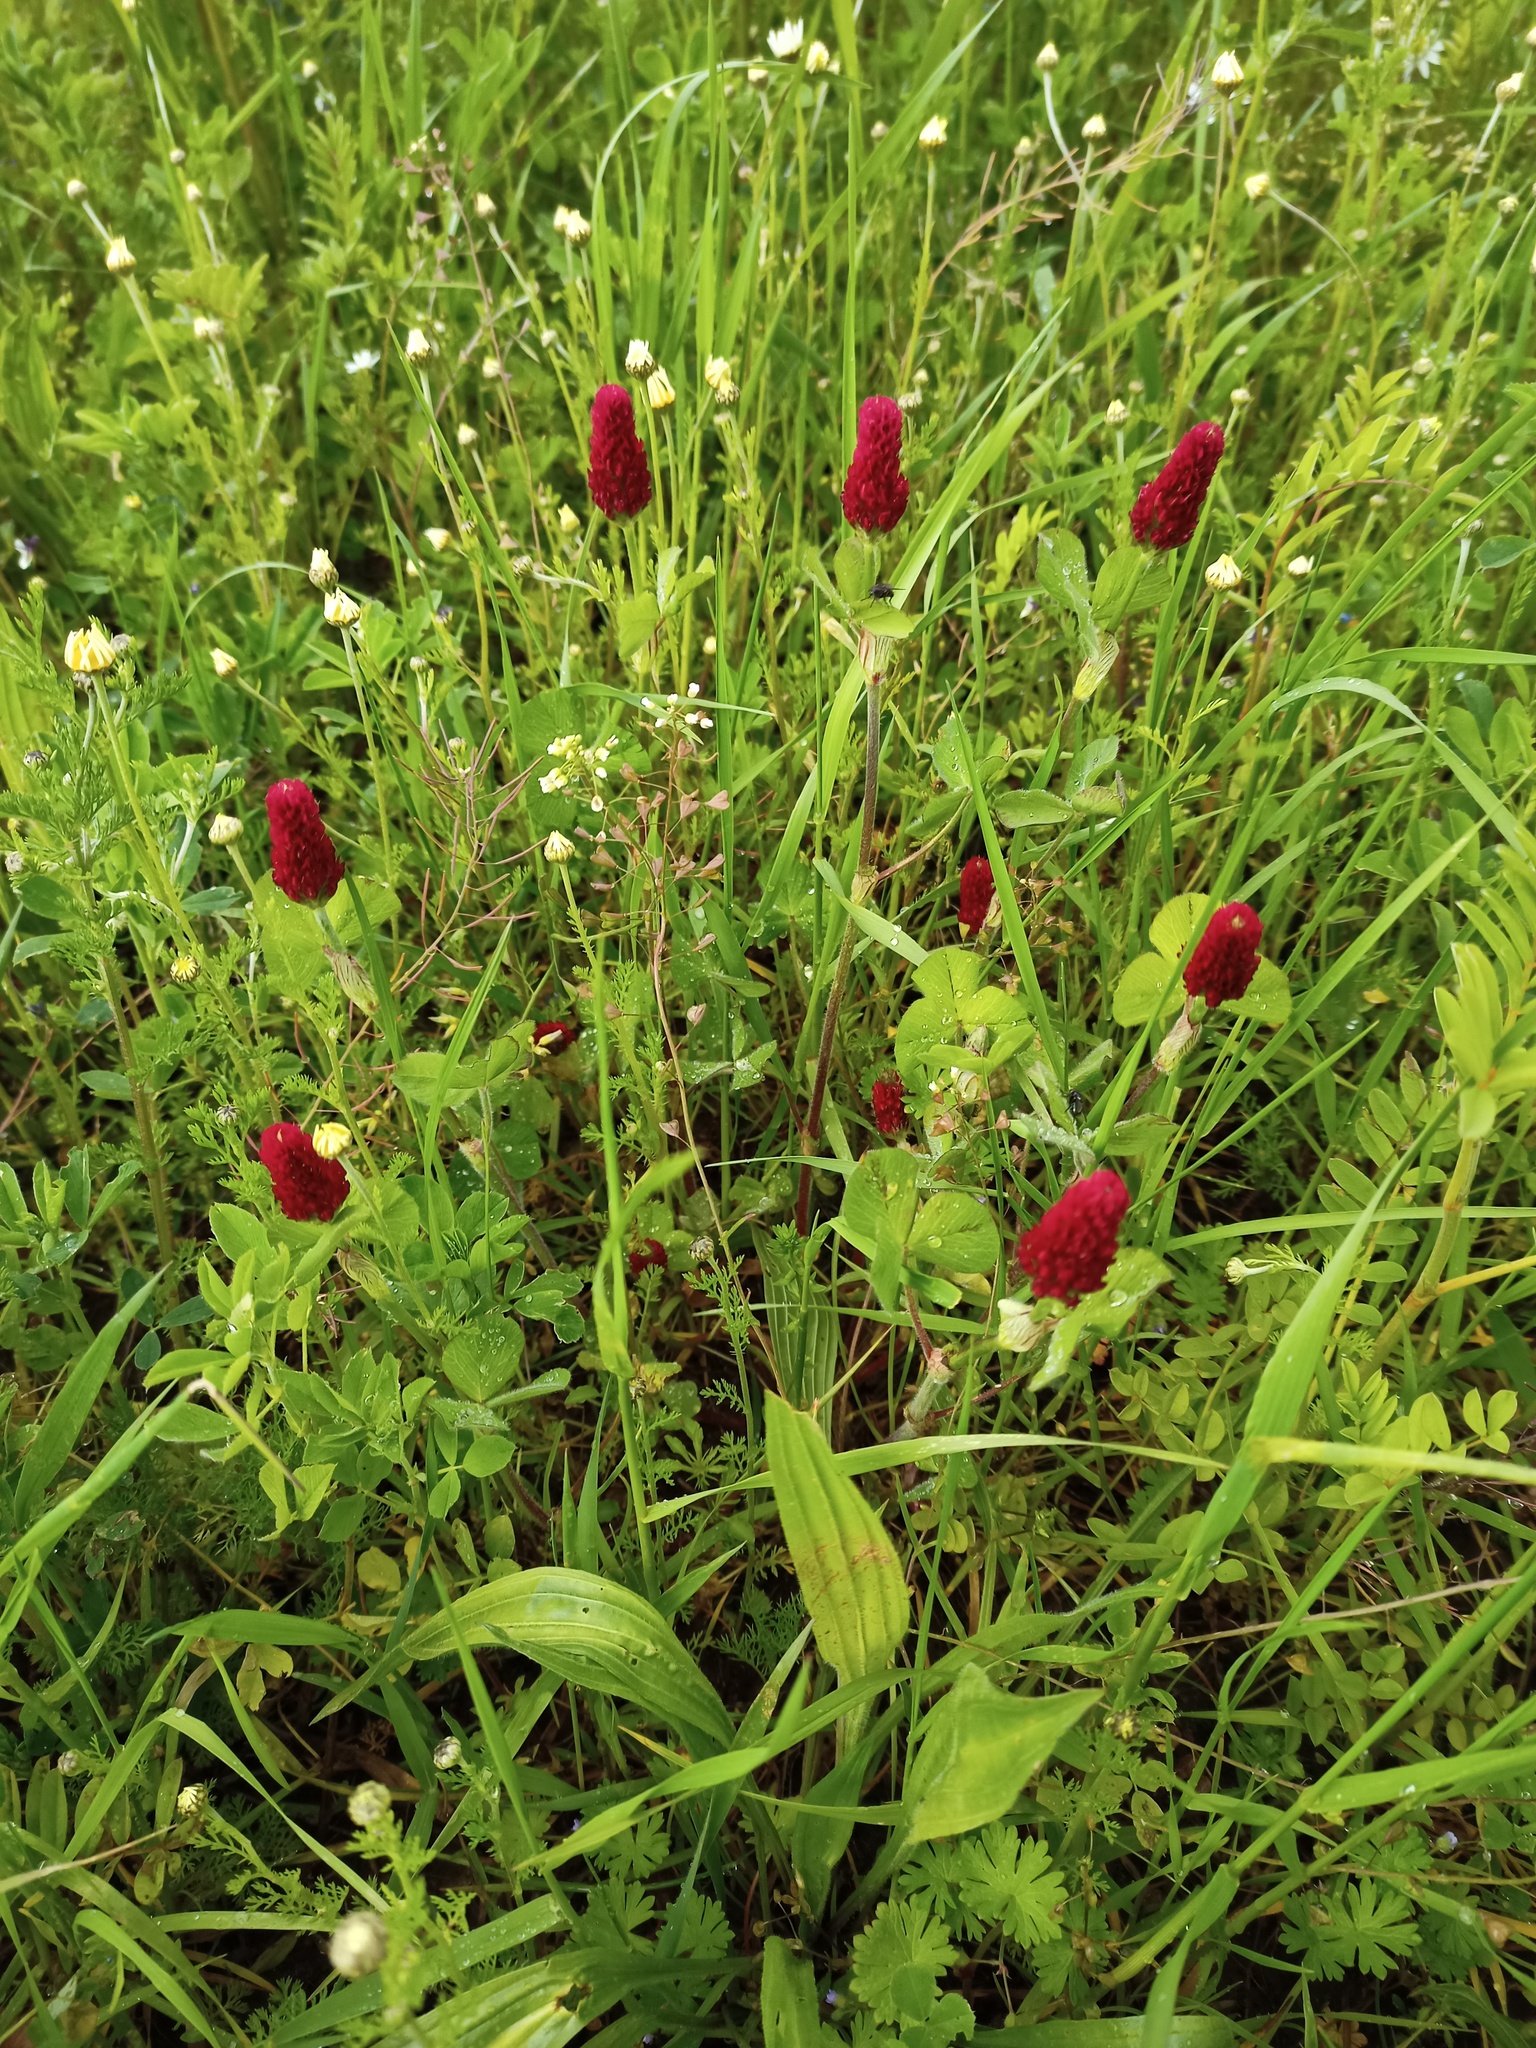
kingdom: Plantae
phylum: Tracheophyta
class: Magnoliopsida
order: Fabales
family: Fabaceae
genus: Trifolium
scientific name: Trifolium incarnatum
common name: Crimson clover
